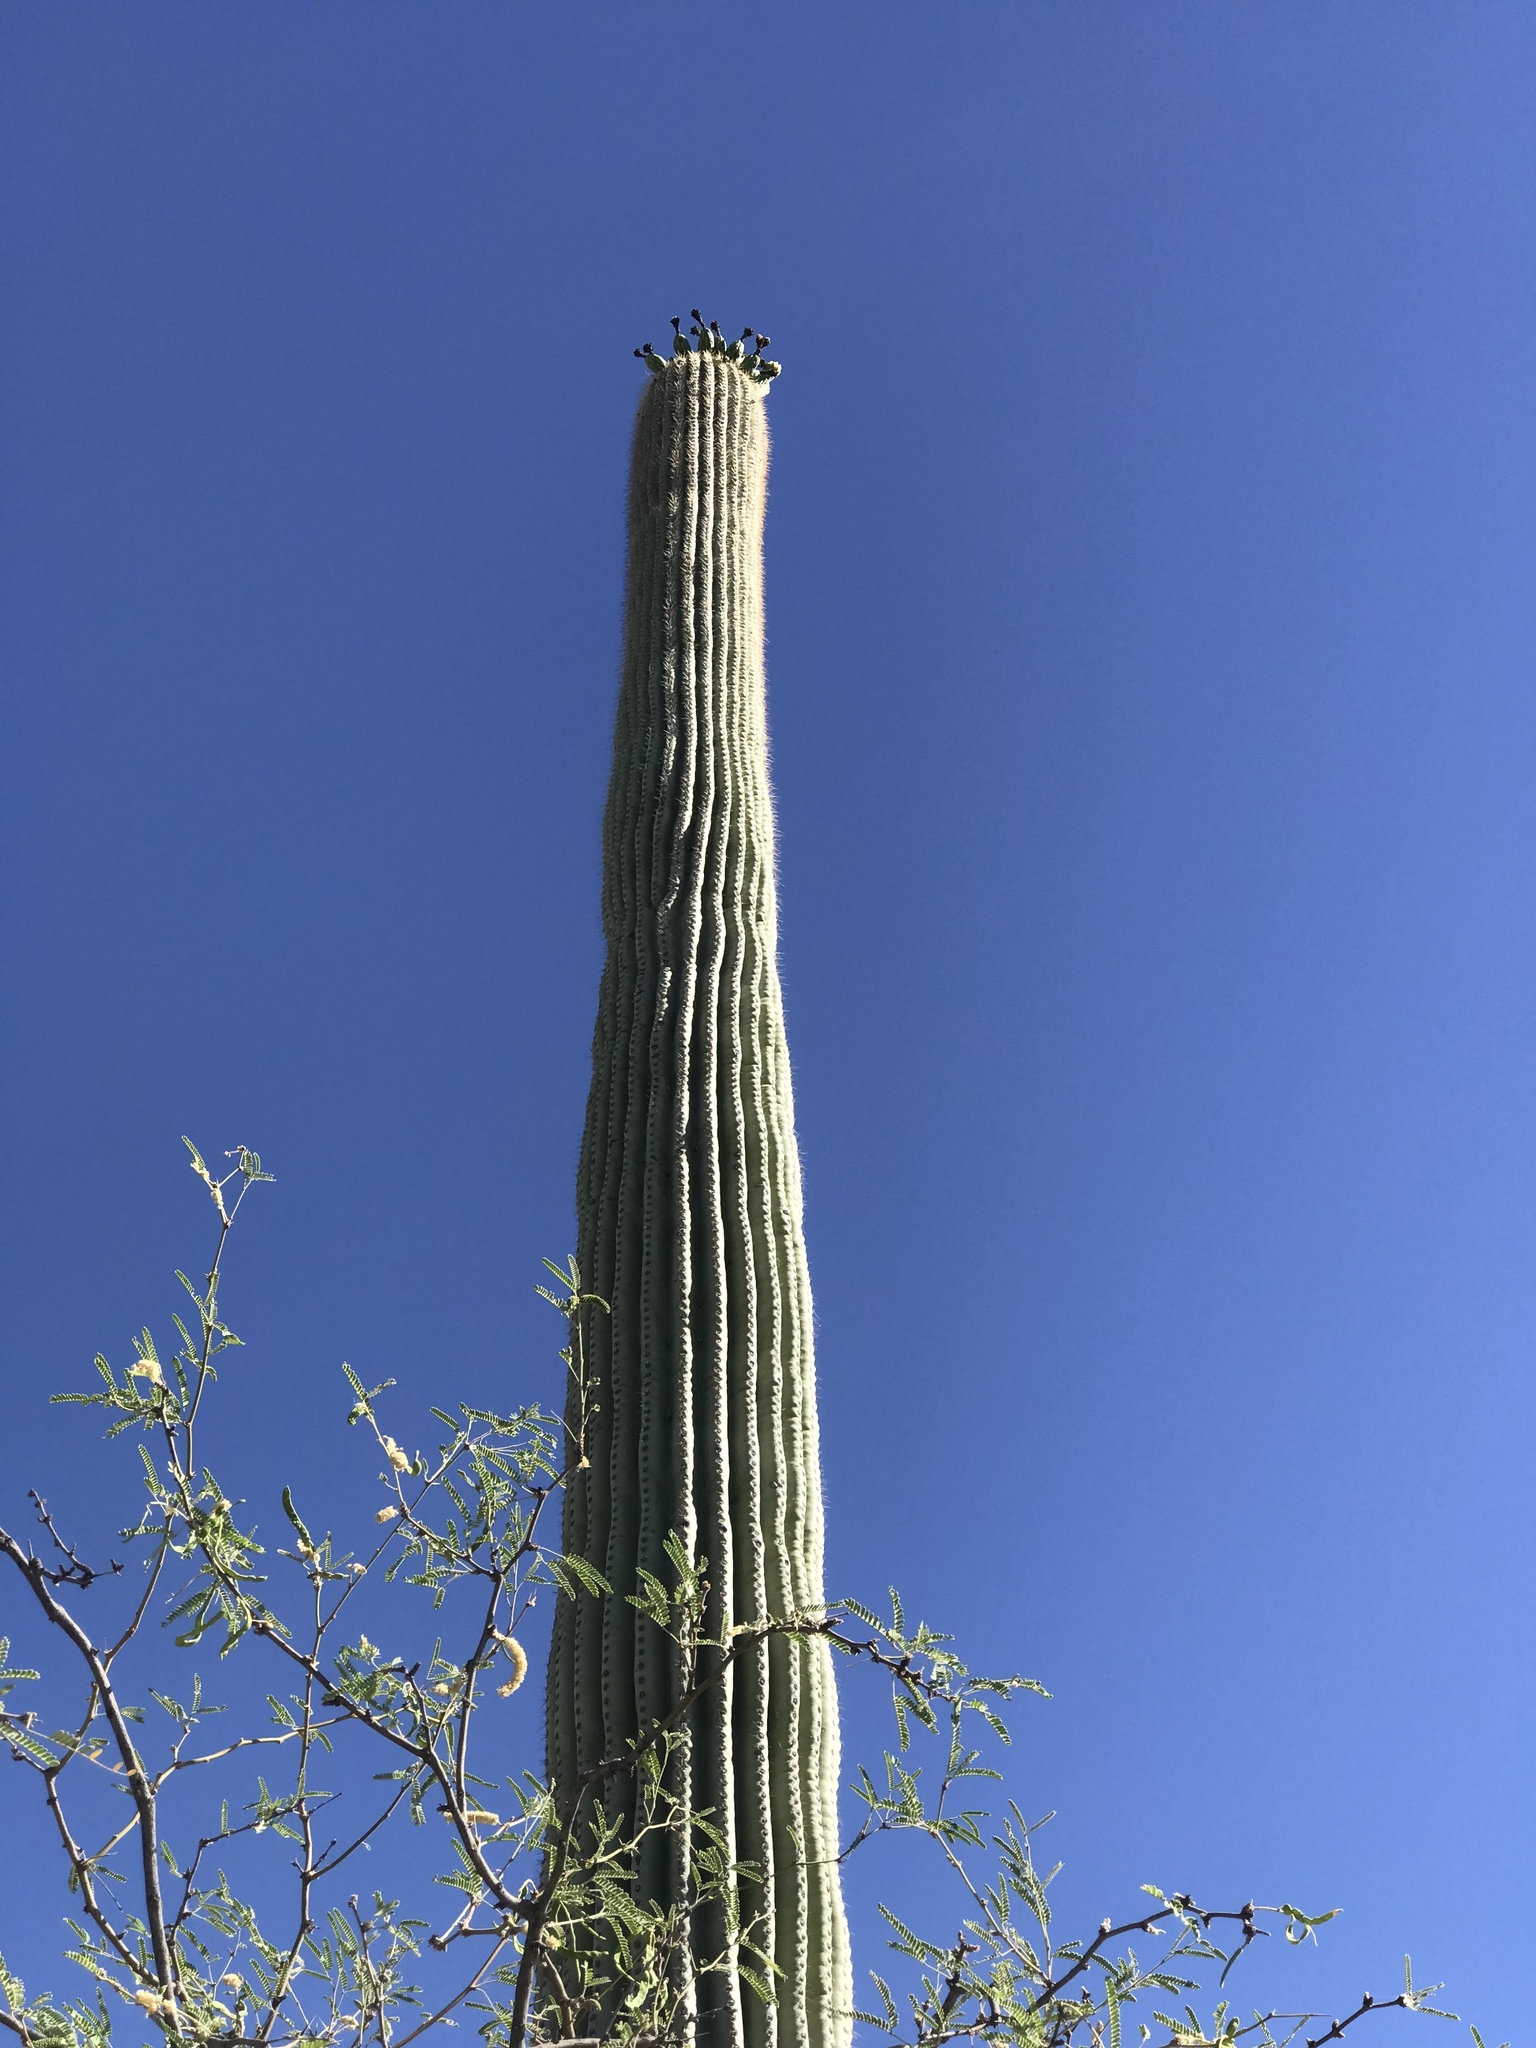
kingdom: Plantae
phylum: Tracheophyta
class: Magnoliopsida
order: Caryophyllales
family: Cactaceae
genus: Carnegiea
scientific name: Carnegiea gigantea
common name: Saguaro
